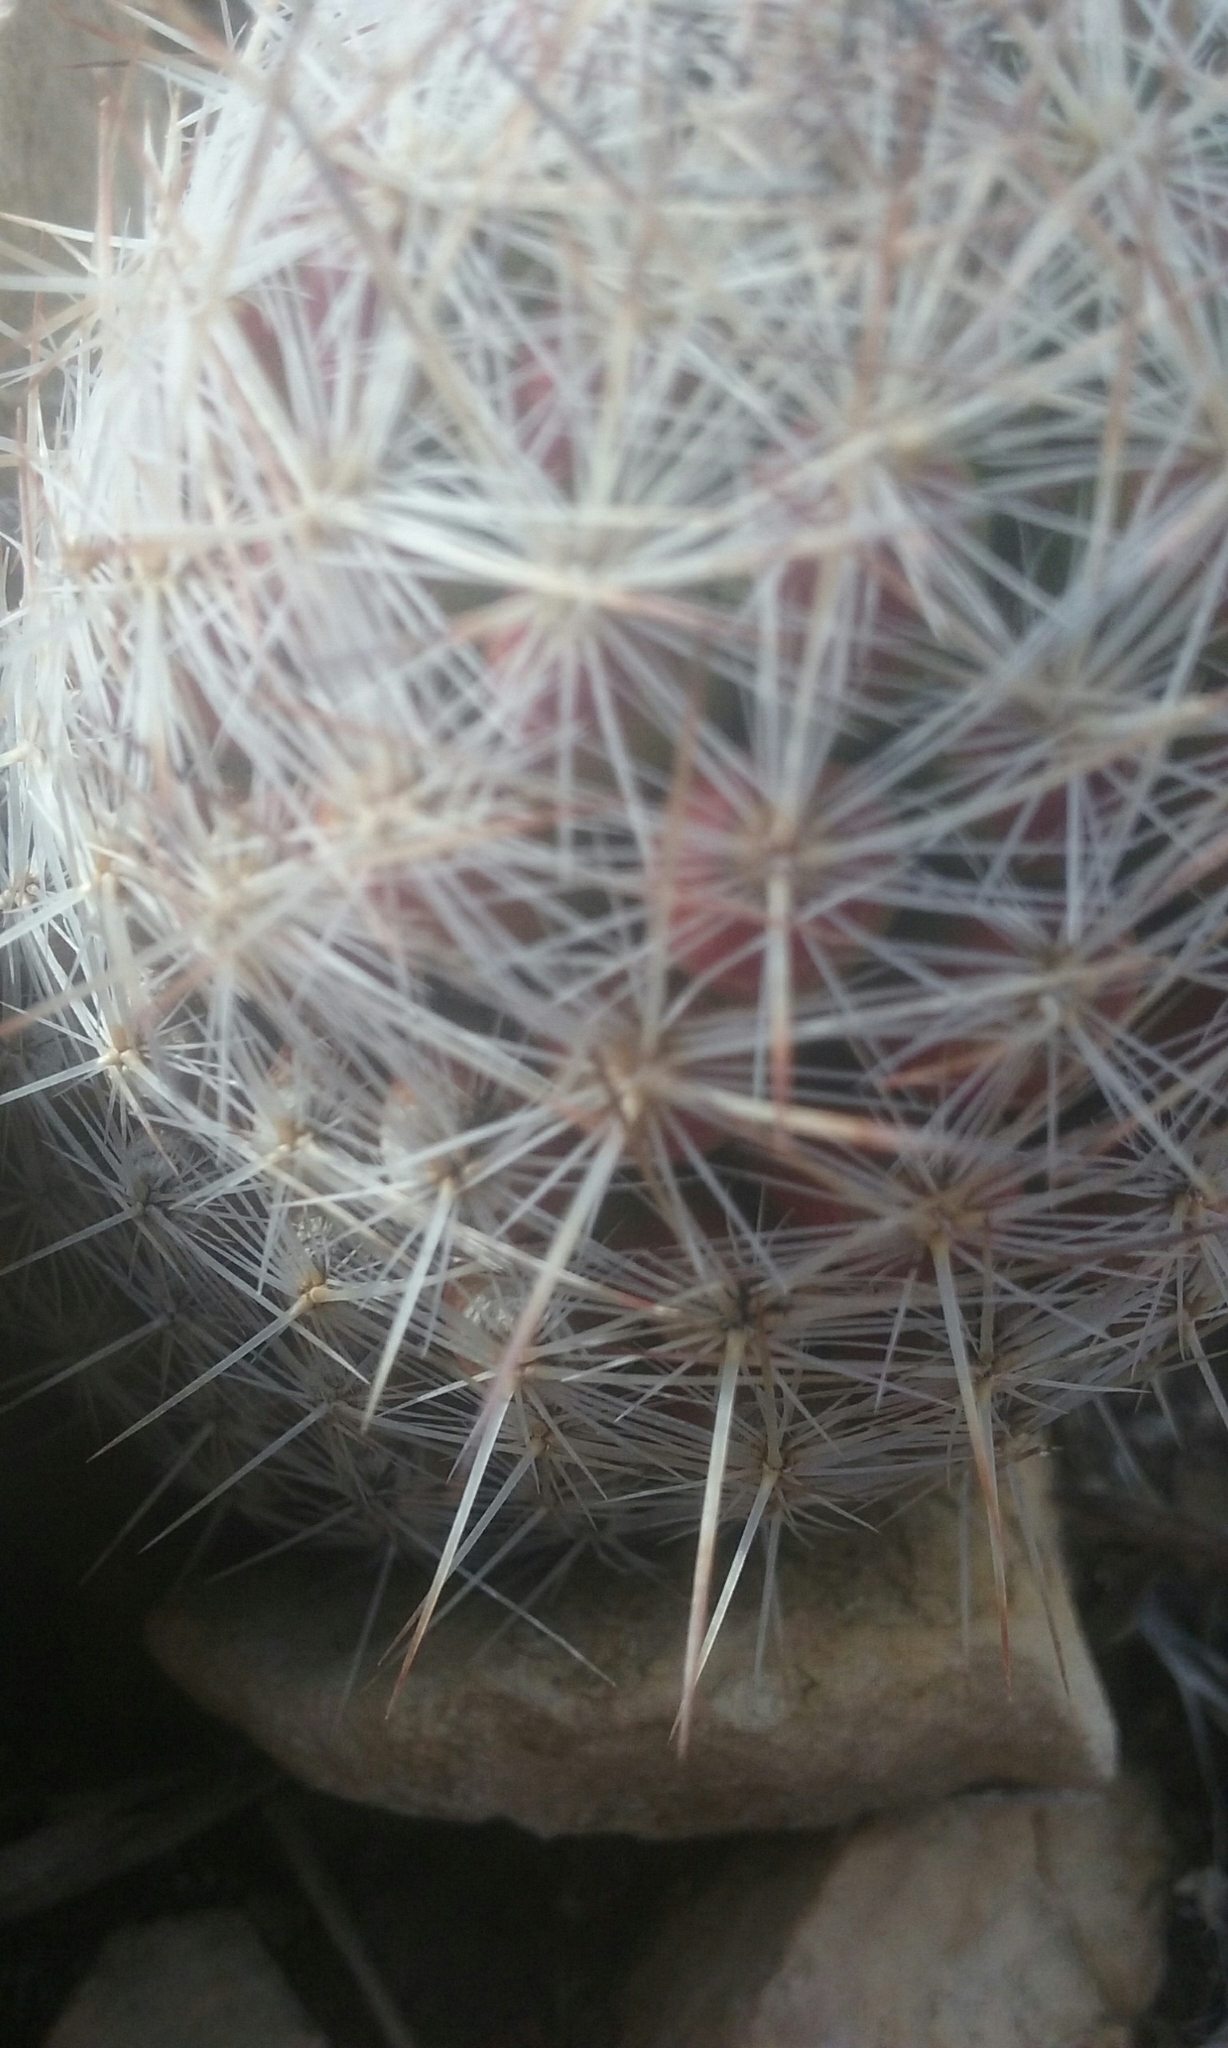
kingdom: Plantae
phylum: Tracheophyta
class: Magnoliopsida
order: Caryophyllales
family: Cactaceae
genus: Pelecyphora
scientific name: Pelecyphora tuberculosa
